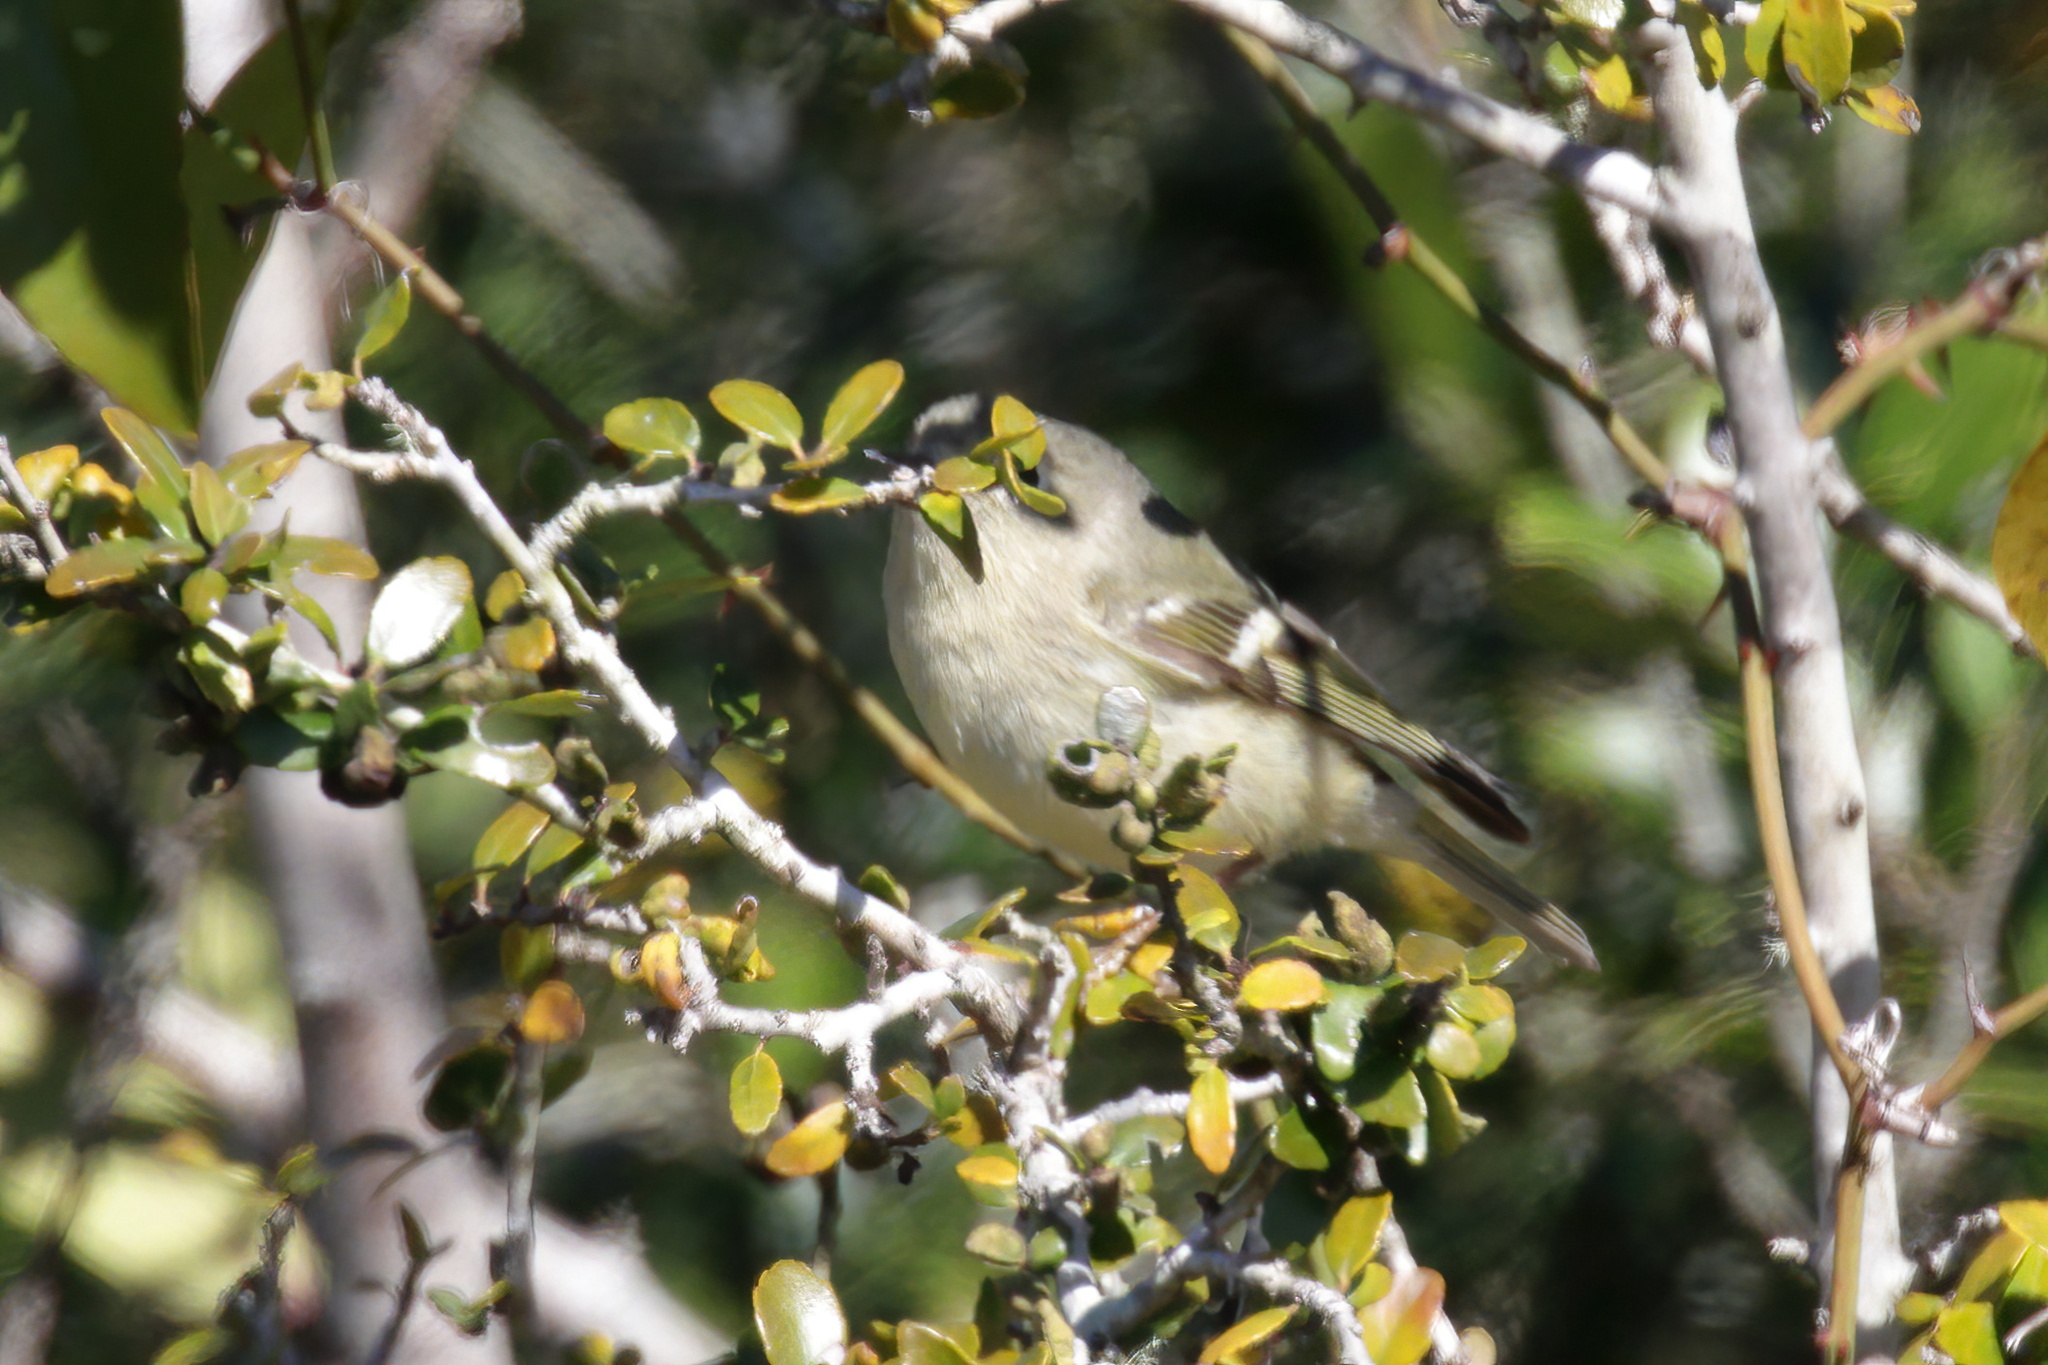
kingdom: Animalia
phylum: Chordata
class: Aves
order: Passeriformes
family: Regulidae
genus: Regulus
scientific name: Regulus calendula
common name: Ruby-crowned kinglet
